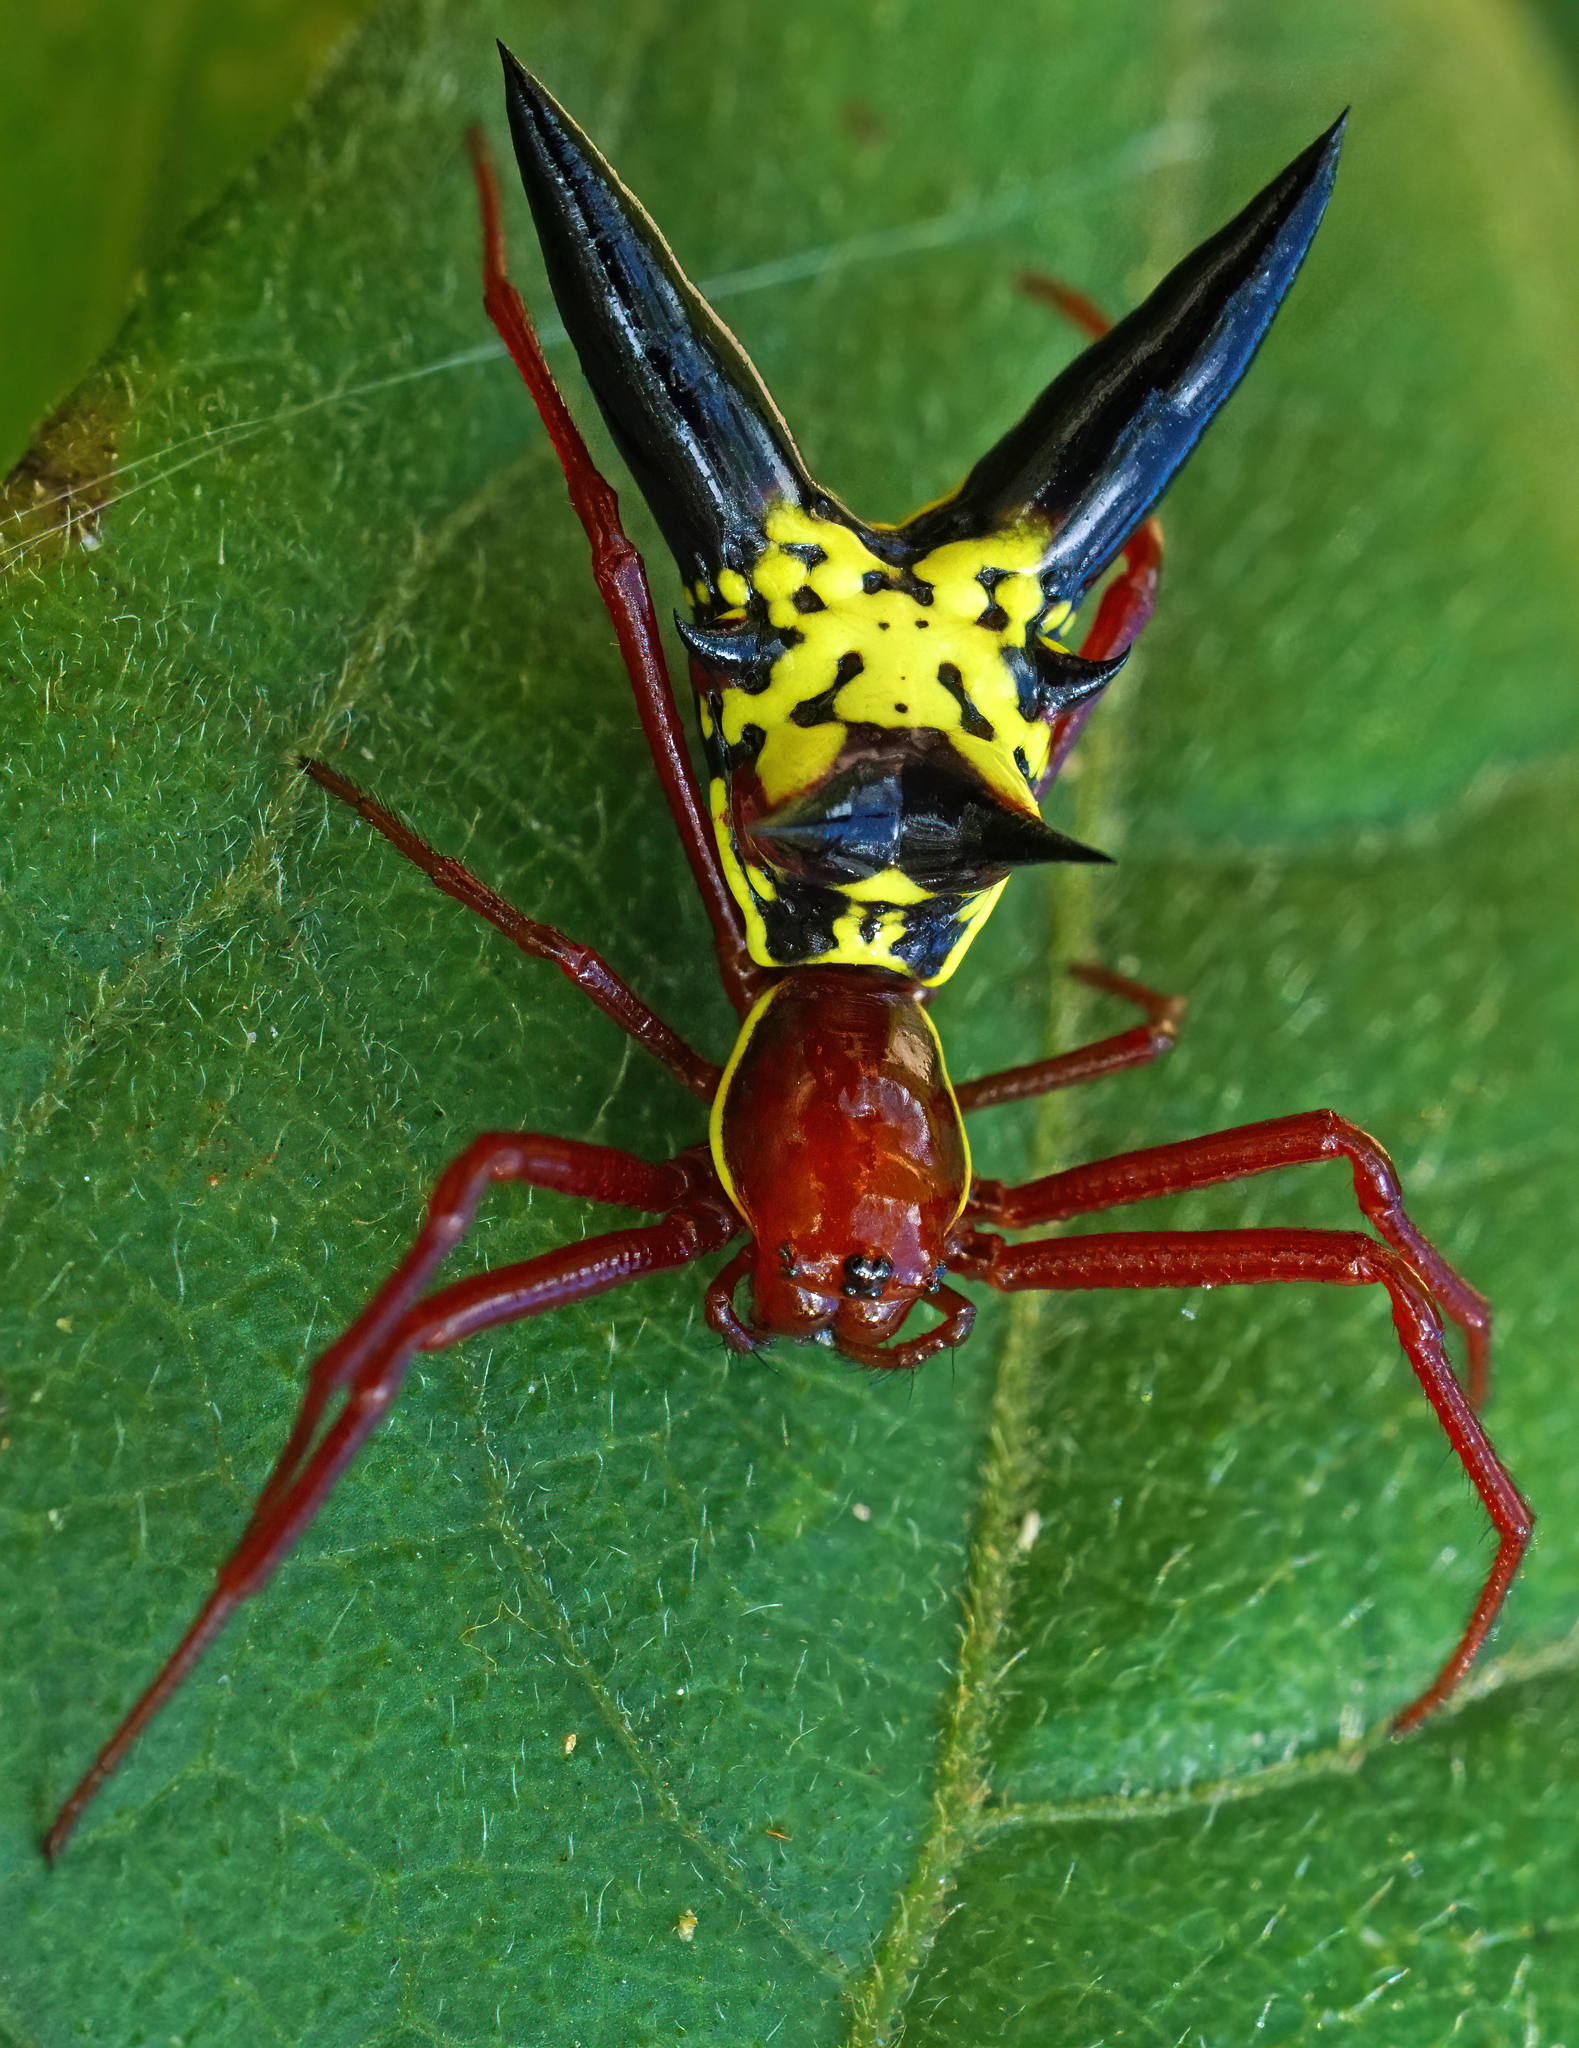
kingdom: Animalia
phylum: Arthropoda
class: Arachnida
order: Araneae
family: Araneidae
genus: Micrathena
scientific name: Micrathena sagittata
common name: Orb weavers
